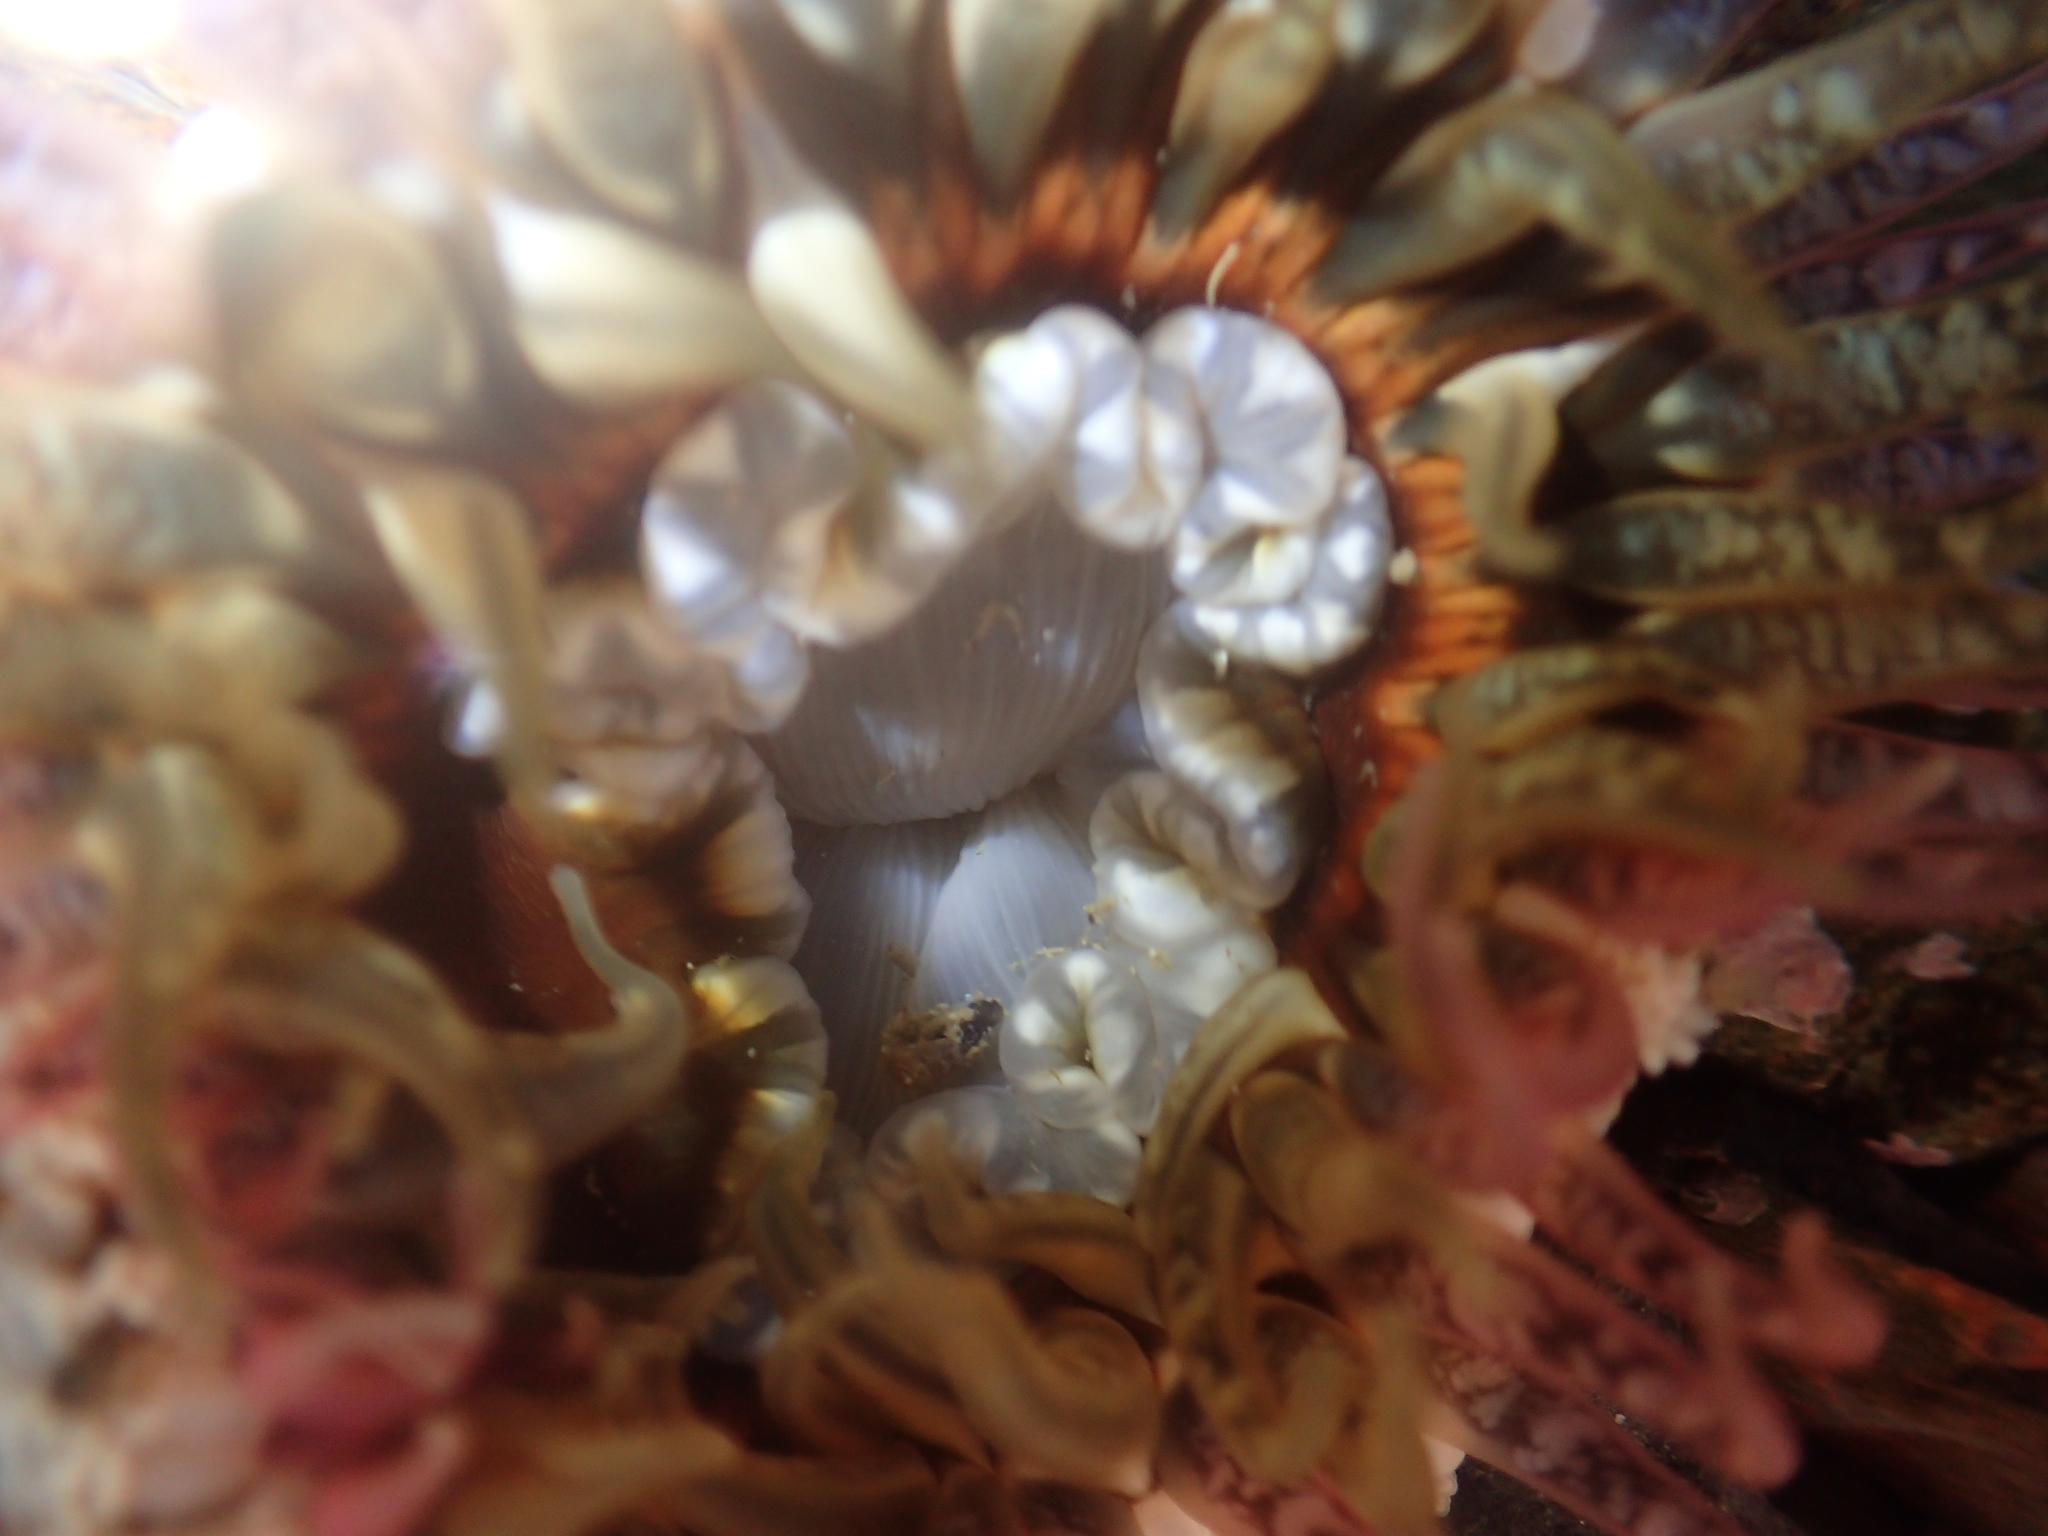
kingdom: Animalia
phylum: Cnidaria
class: Anthozoa
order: Actiniaria
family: Actiniidae
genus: Oulactis
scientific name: Oulactis muscosa
